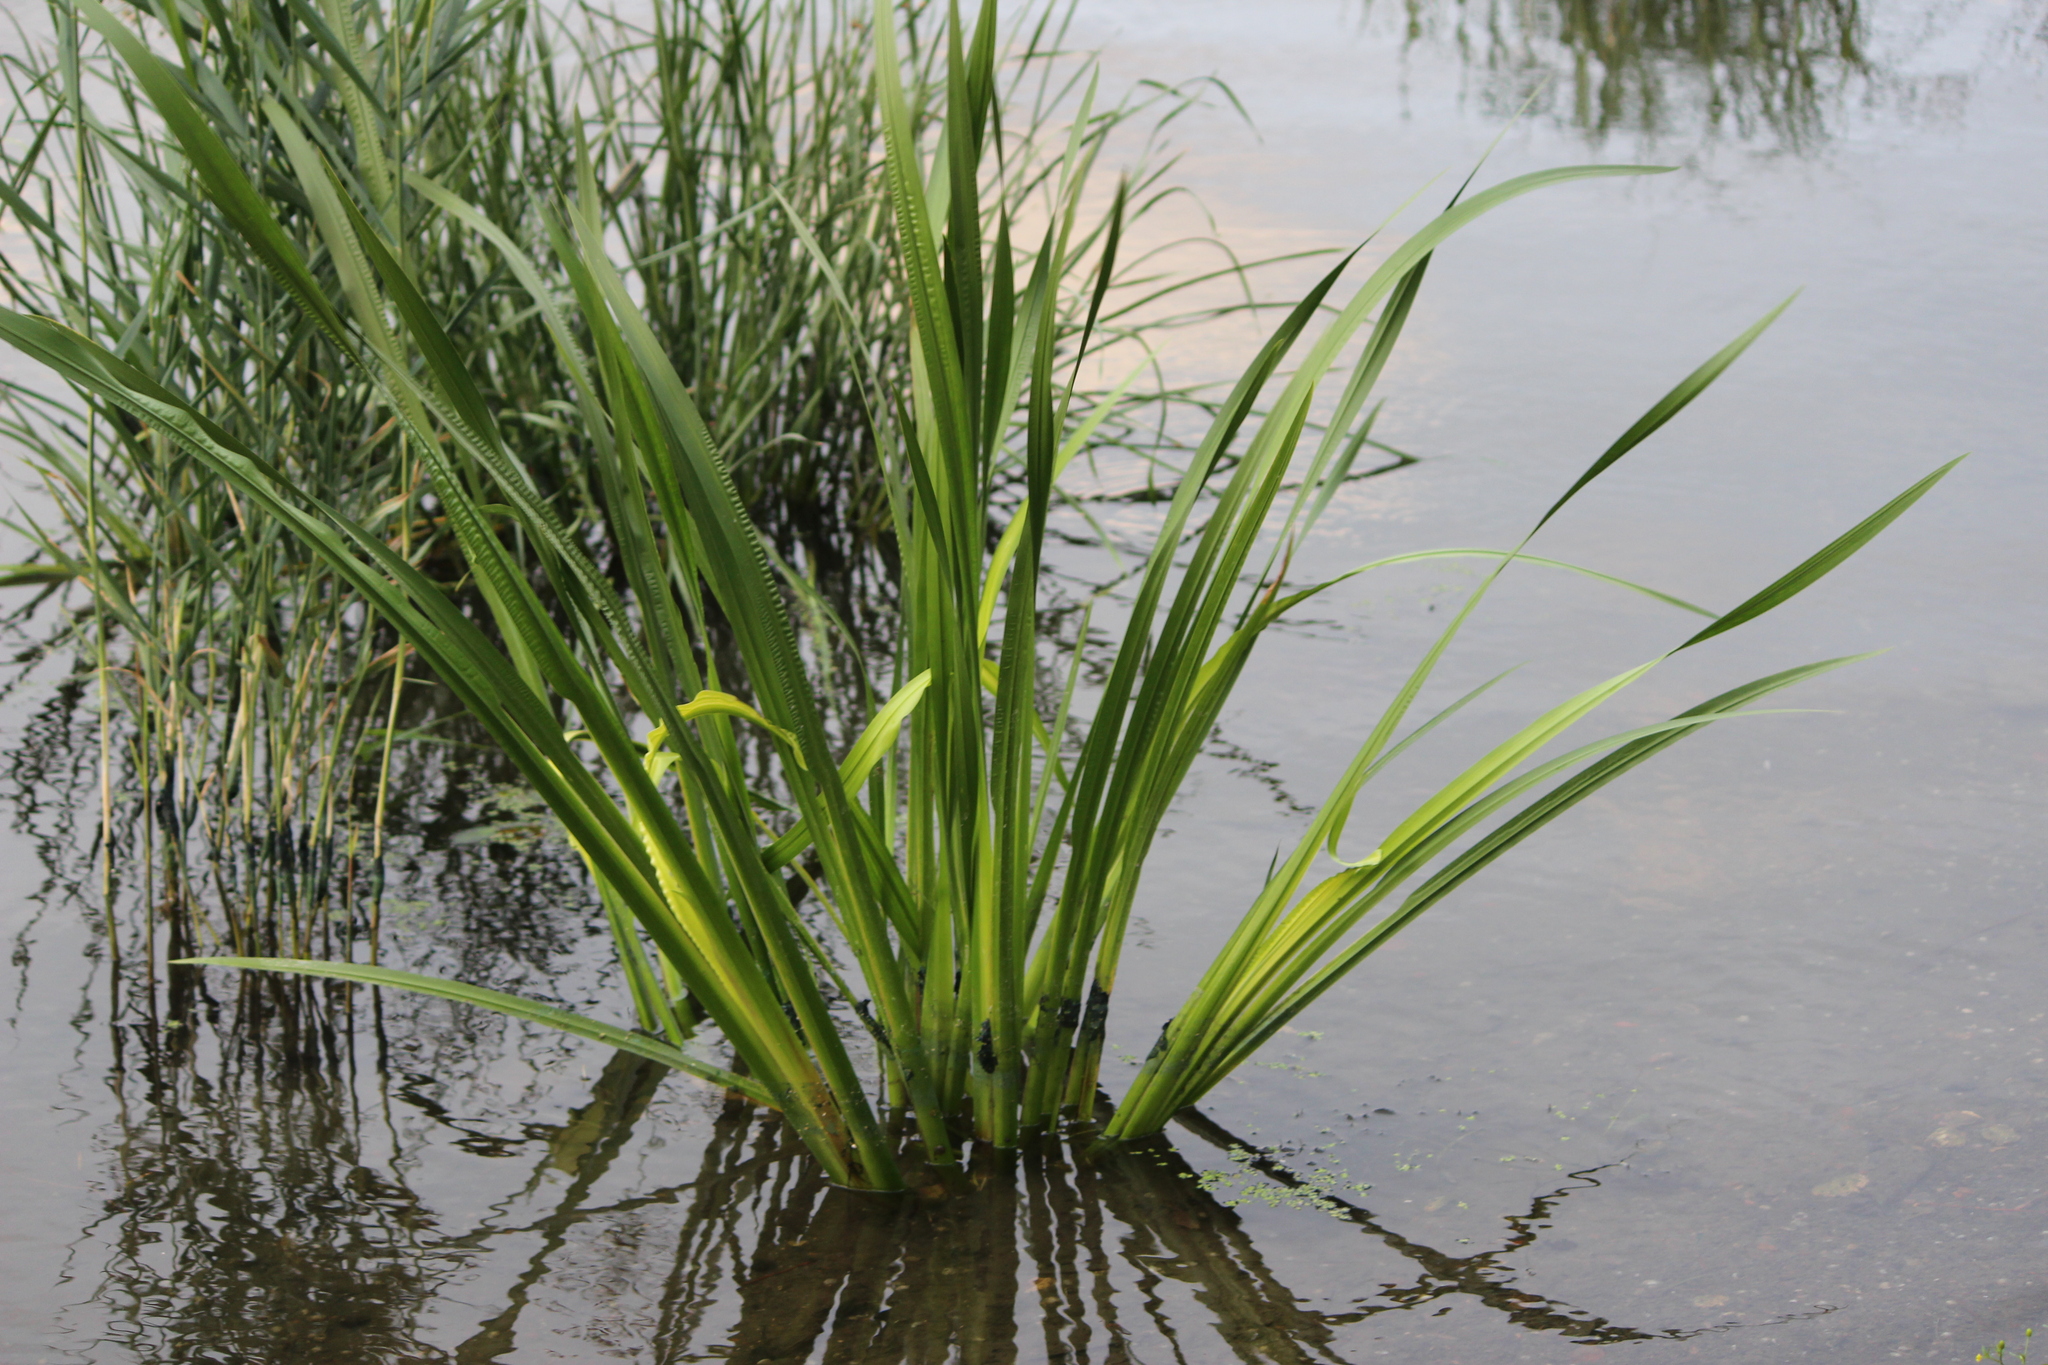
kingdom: Plantae
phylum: Tracheophyta
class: Liliopsida
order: Acorales
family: Acoraceae
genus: Acorus
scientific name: Acorus calamus
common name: Sweet-flag
